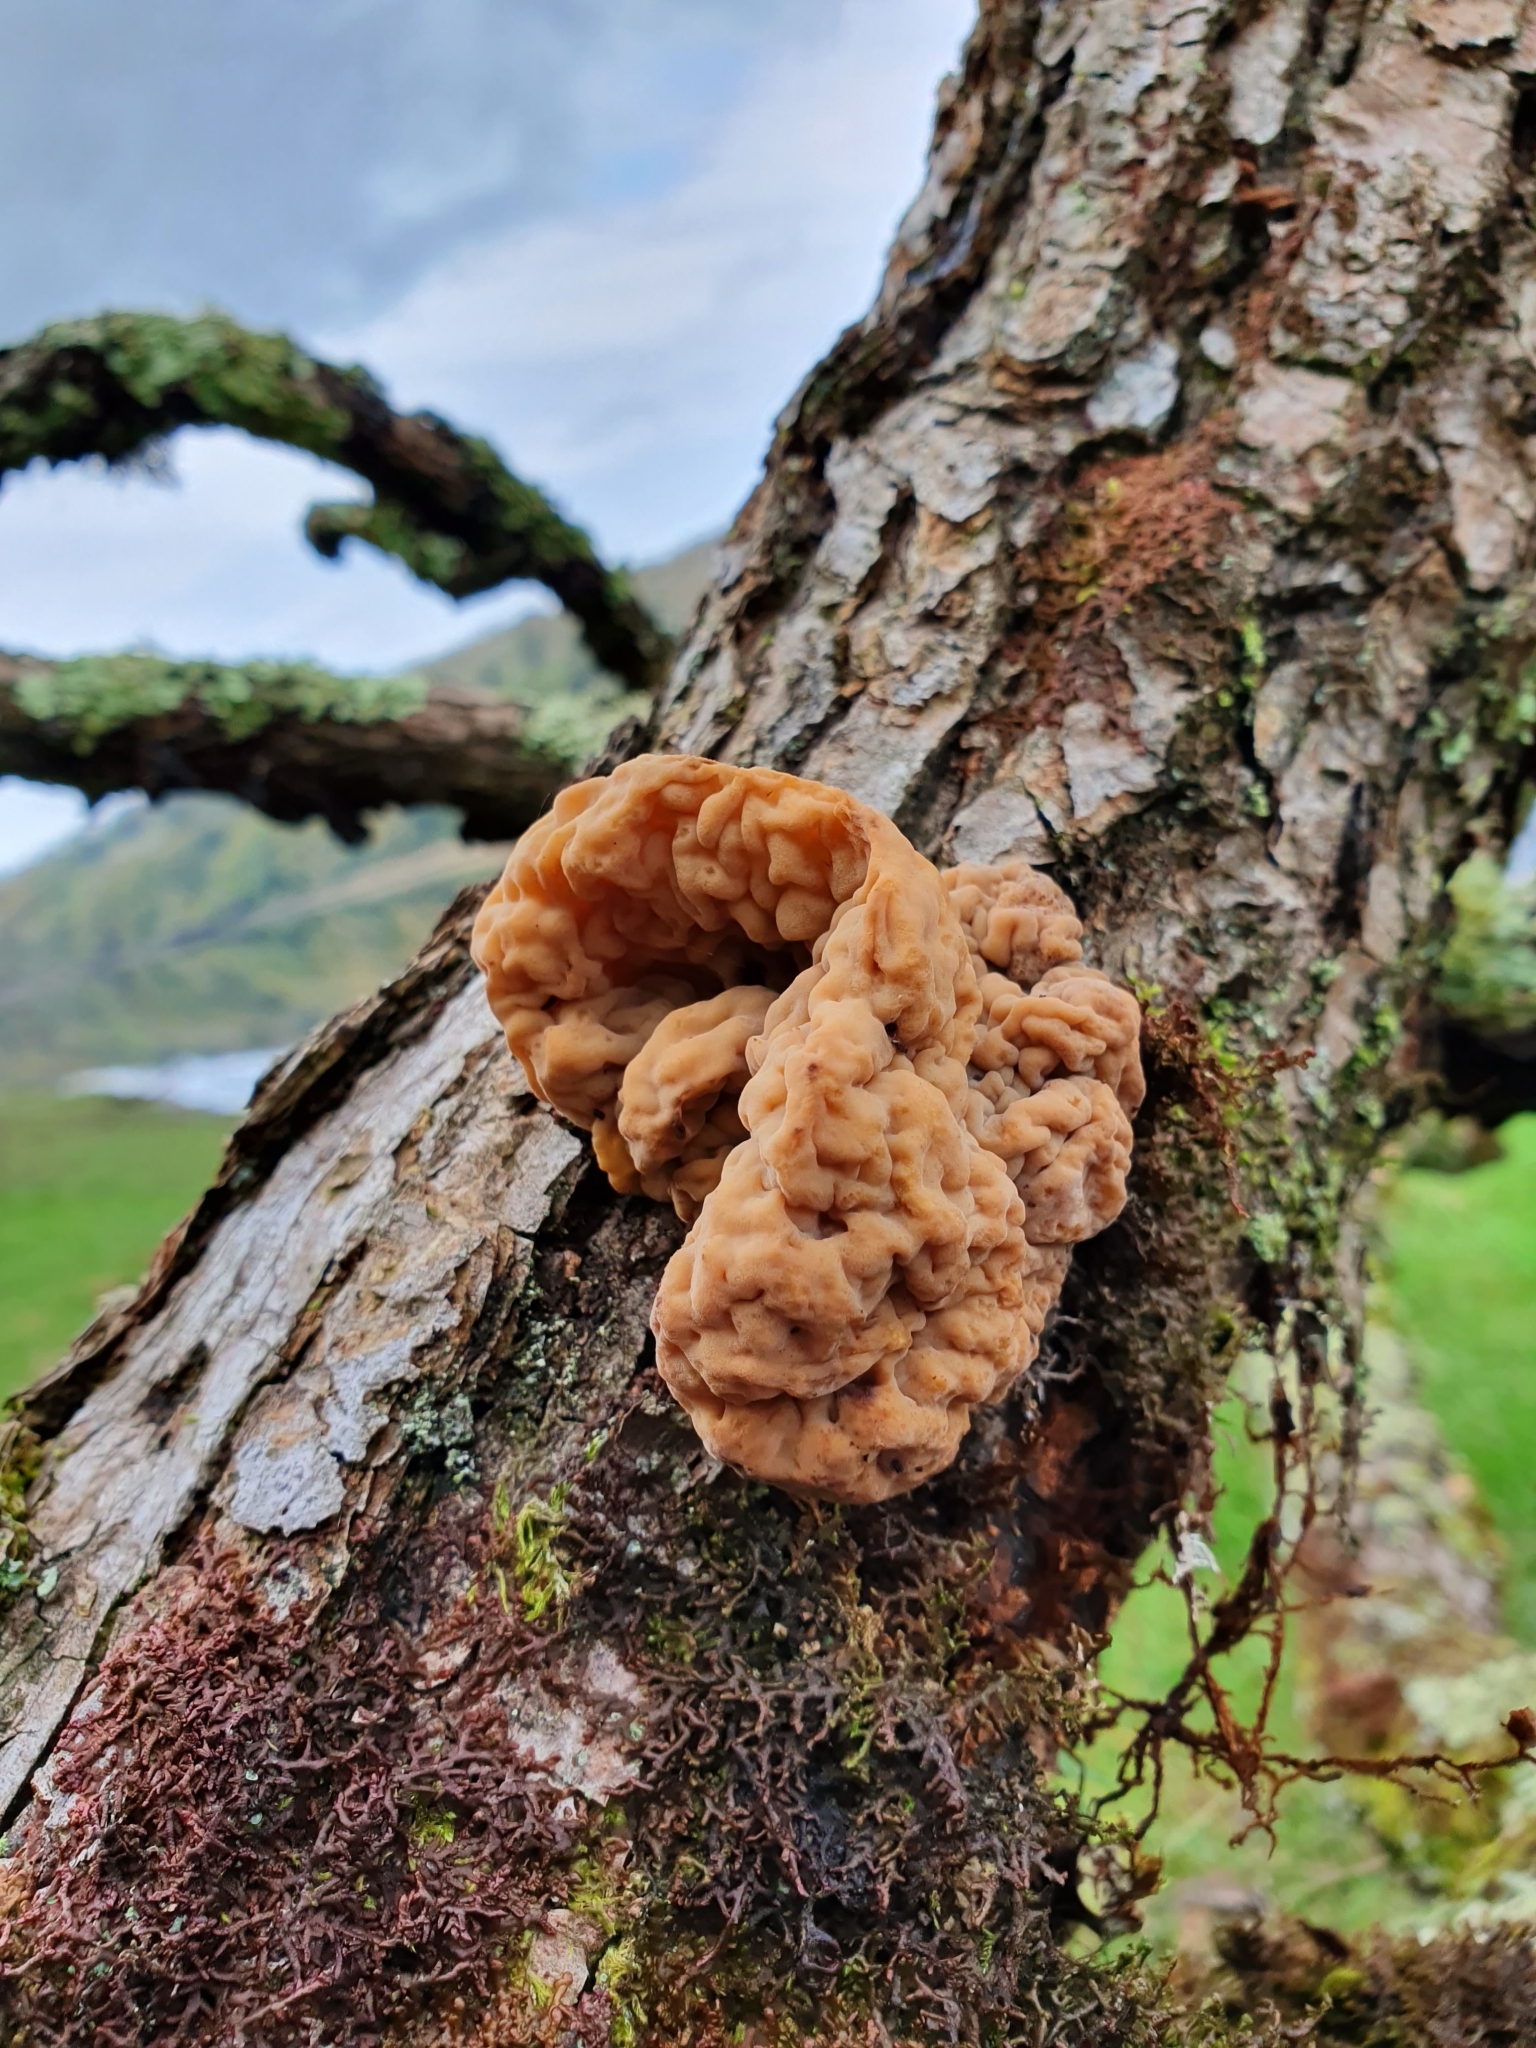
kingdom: Fungi
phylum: Basidiomycota
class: Tremellomycetes
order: Tremellales
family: Tremellaceae
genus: Tremella
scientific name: Tremella steidleri
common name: Brown brain
